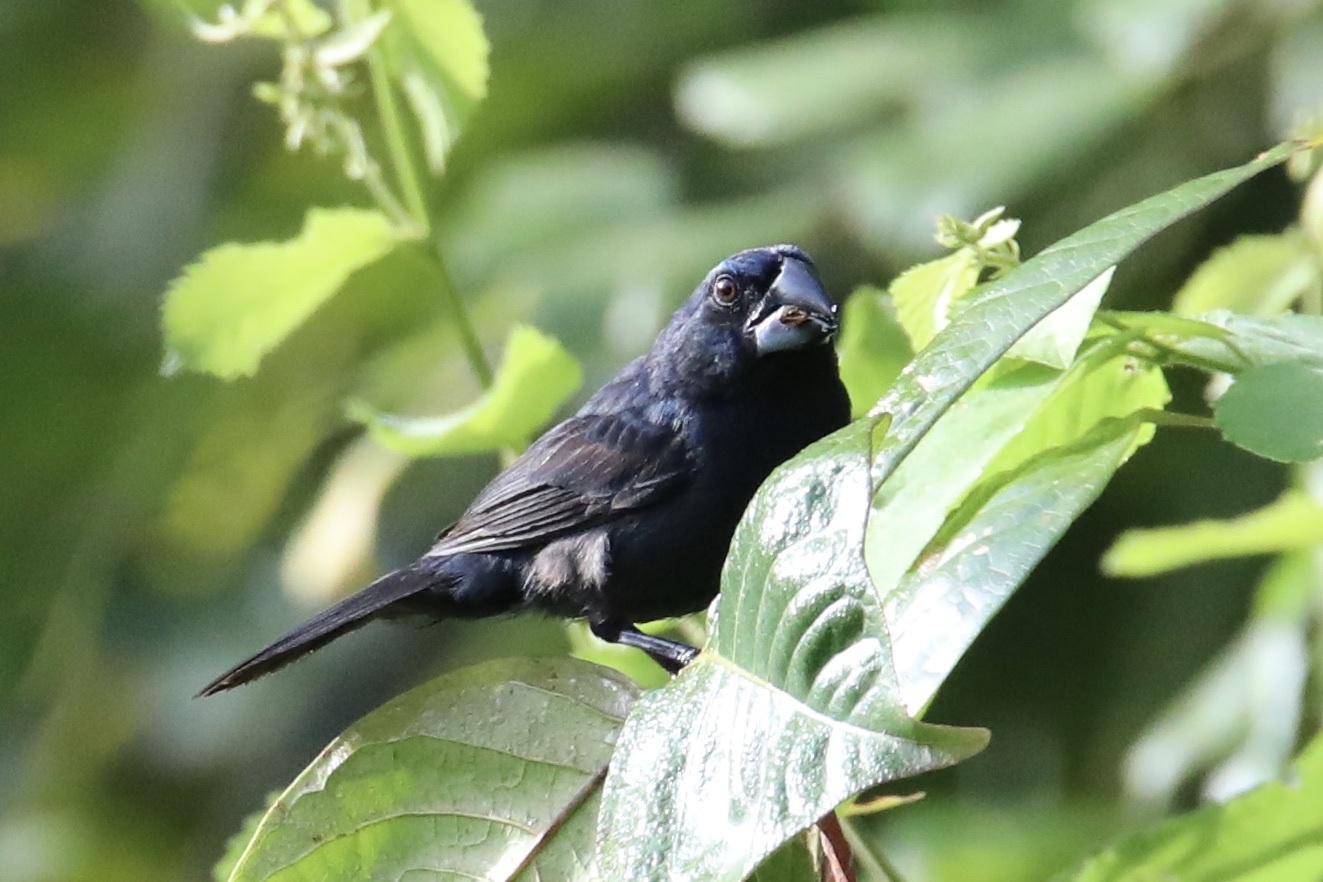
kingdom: Animalia
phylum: Chordata
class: Aves
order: Passeriformes
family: Cardinalidae
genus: Cyanocompsa
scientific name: Cyanocompsa cyanoides
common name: Blue-black grosbeak
